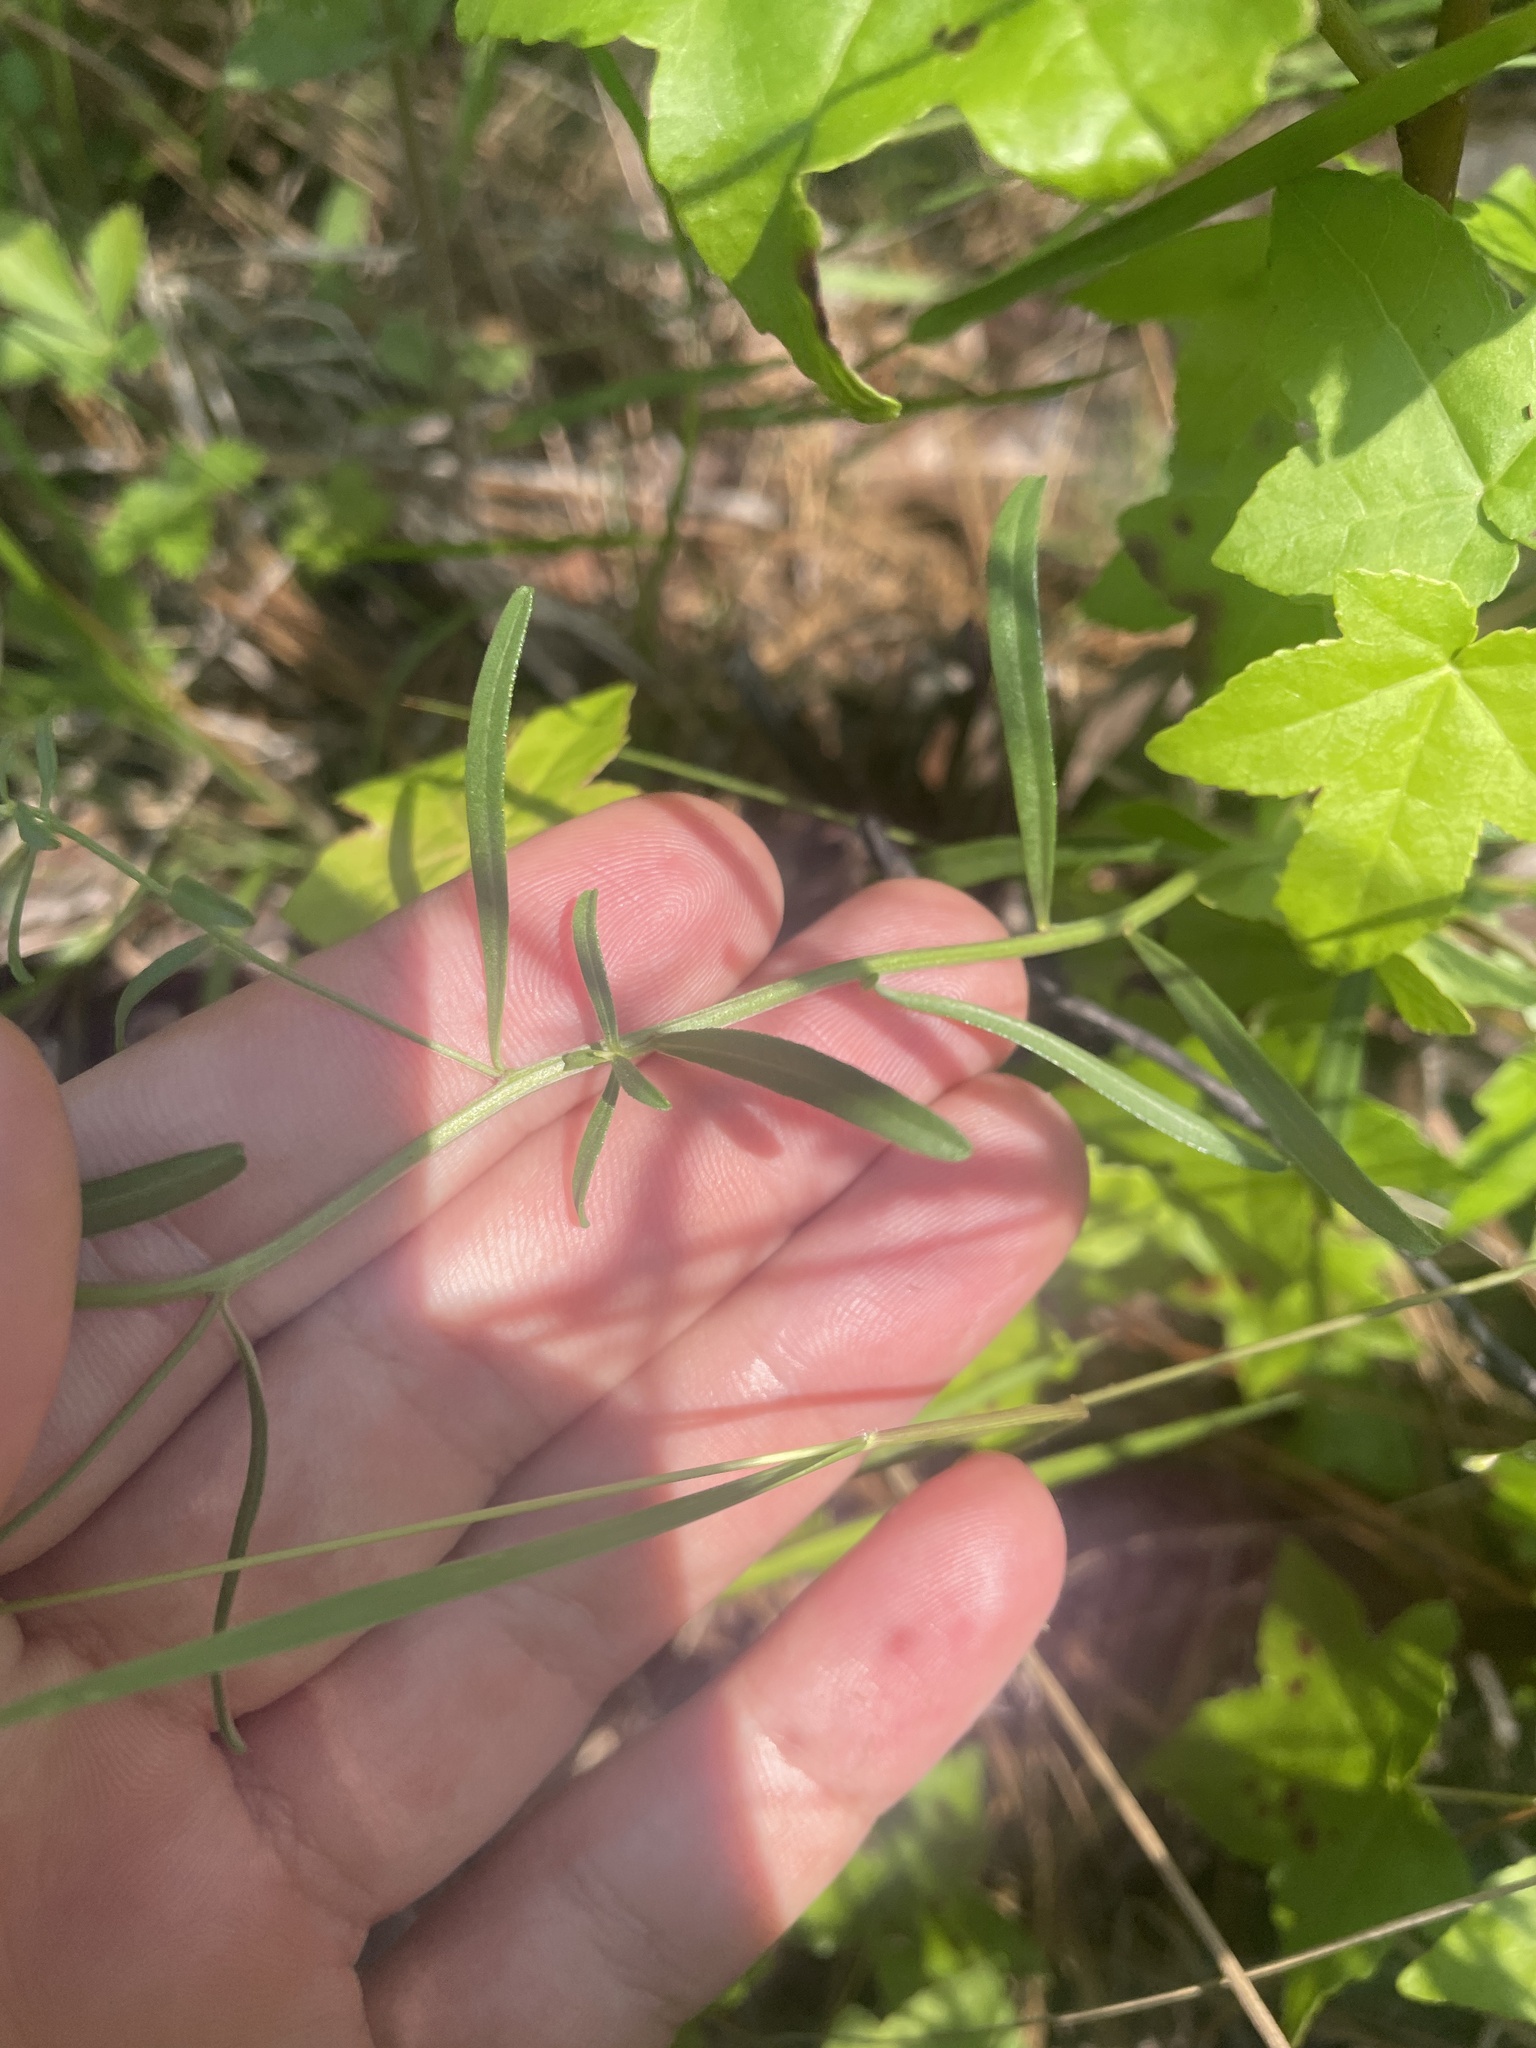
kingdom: Plantae
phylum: Tracheophyta
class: Magnoliopsida
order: Asterales
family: Asteraceae
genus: Sericocarpus
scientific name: Sericocarpus linifolius
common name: Narrow-leaf aster
